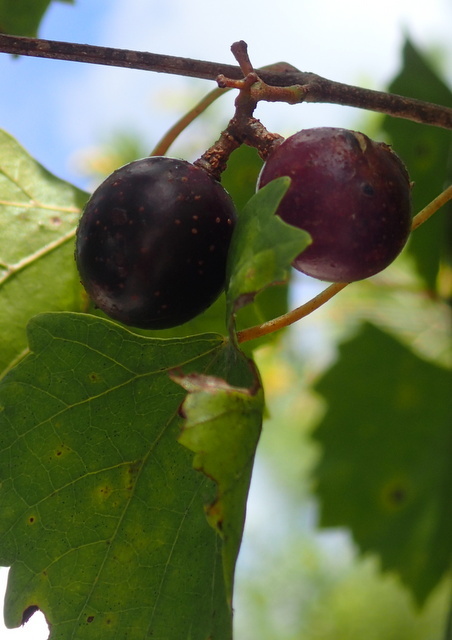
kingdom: Plantae
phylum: Tracheophyta
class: Magnoliopsida
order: Vitales
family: Vitaceae
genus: Vitis
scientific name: Vitis rotundifolia
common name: Muscadine grape
